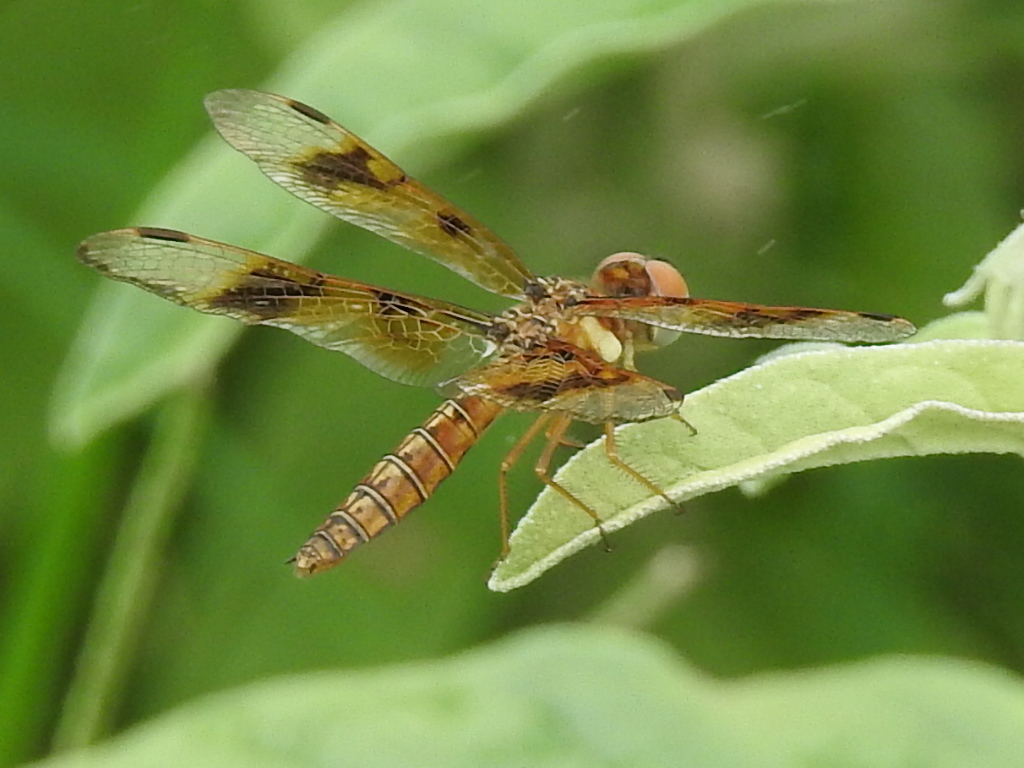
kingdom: Animalia
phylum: Arthropoda
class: Insecta
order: Odonata
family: Libellulidae
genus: Perithemis
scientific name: Perithemis tenera
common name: Eastern amberwing
